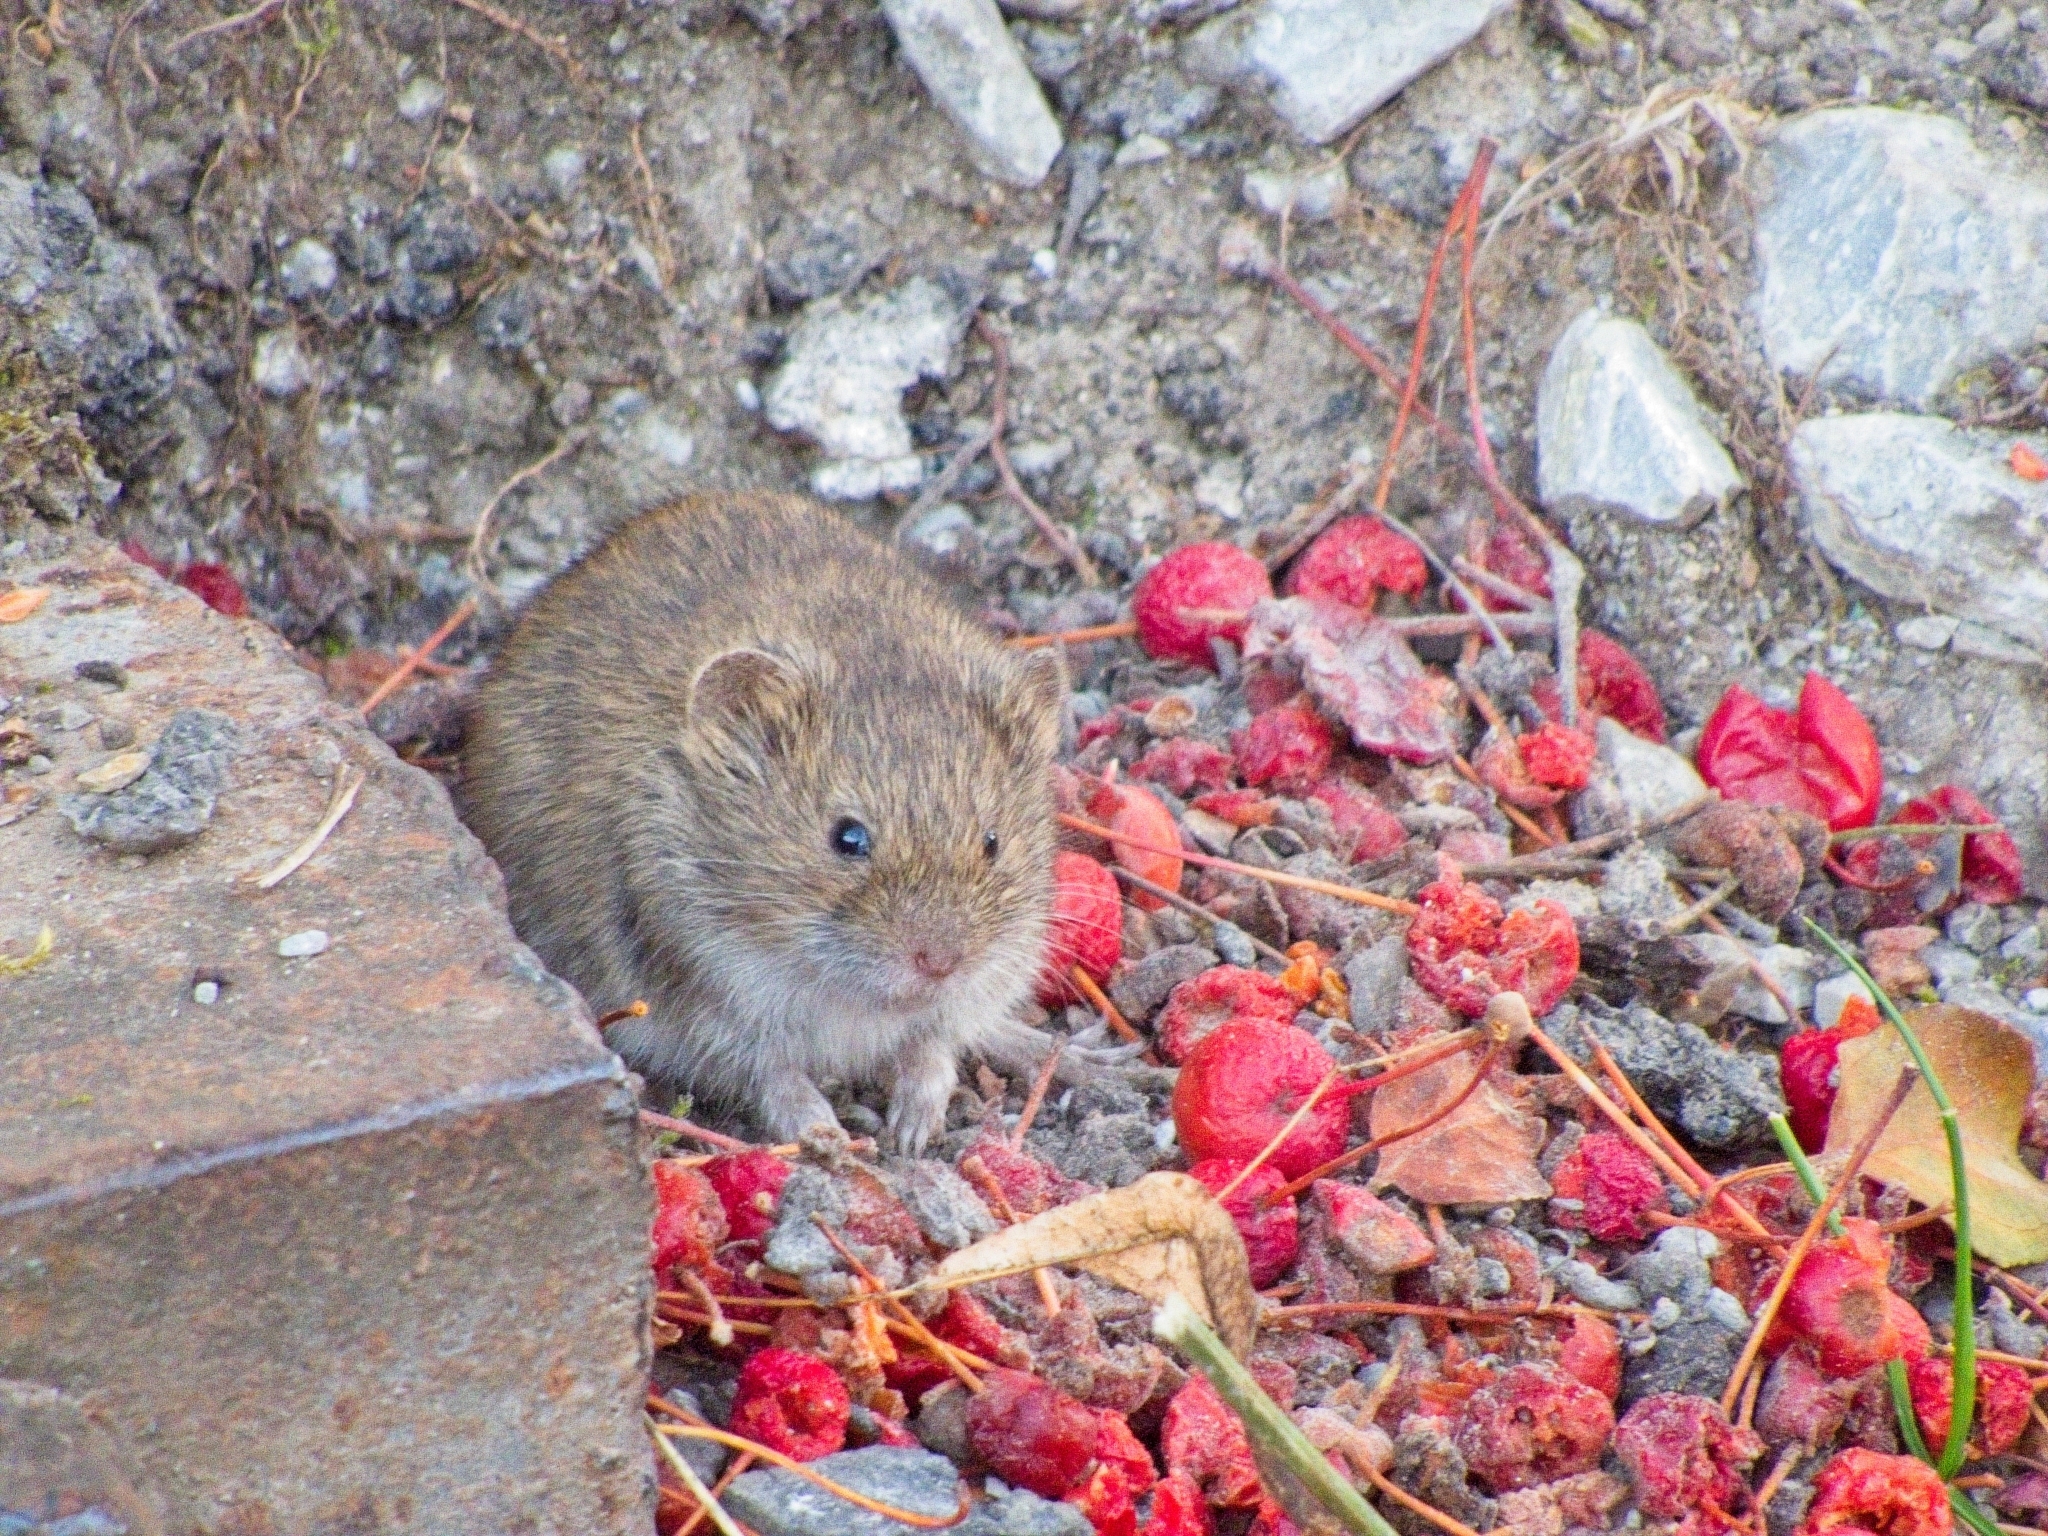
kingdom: Animalia
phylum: Chordata
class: Mammalia
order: Rodentia
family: Cricetidae
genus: Microtus
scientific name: Microtus arvalis
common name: Common vole
